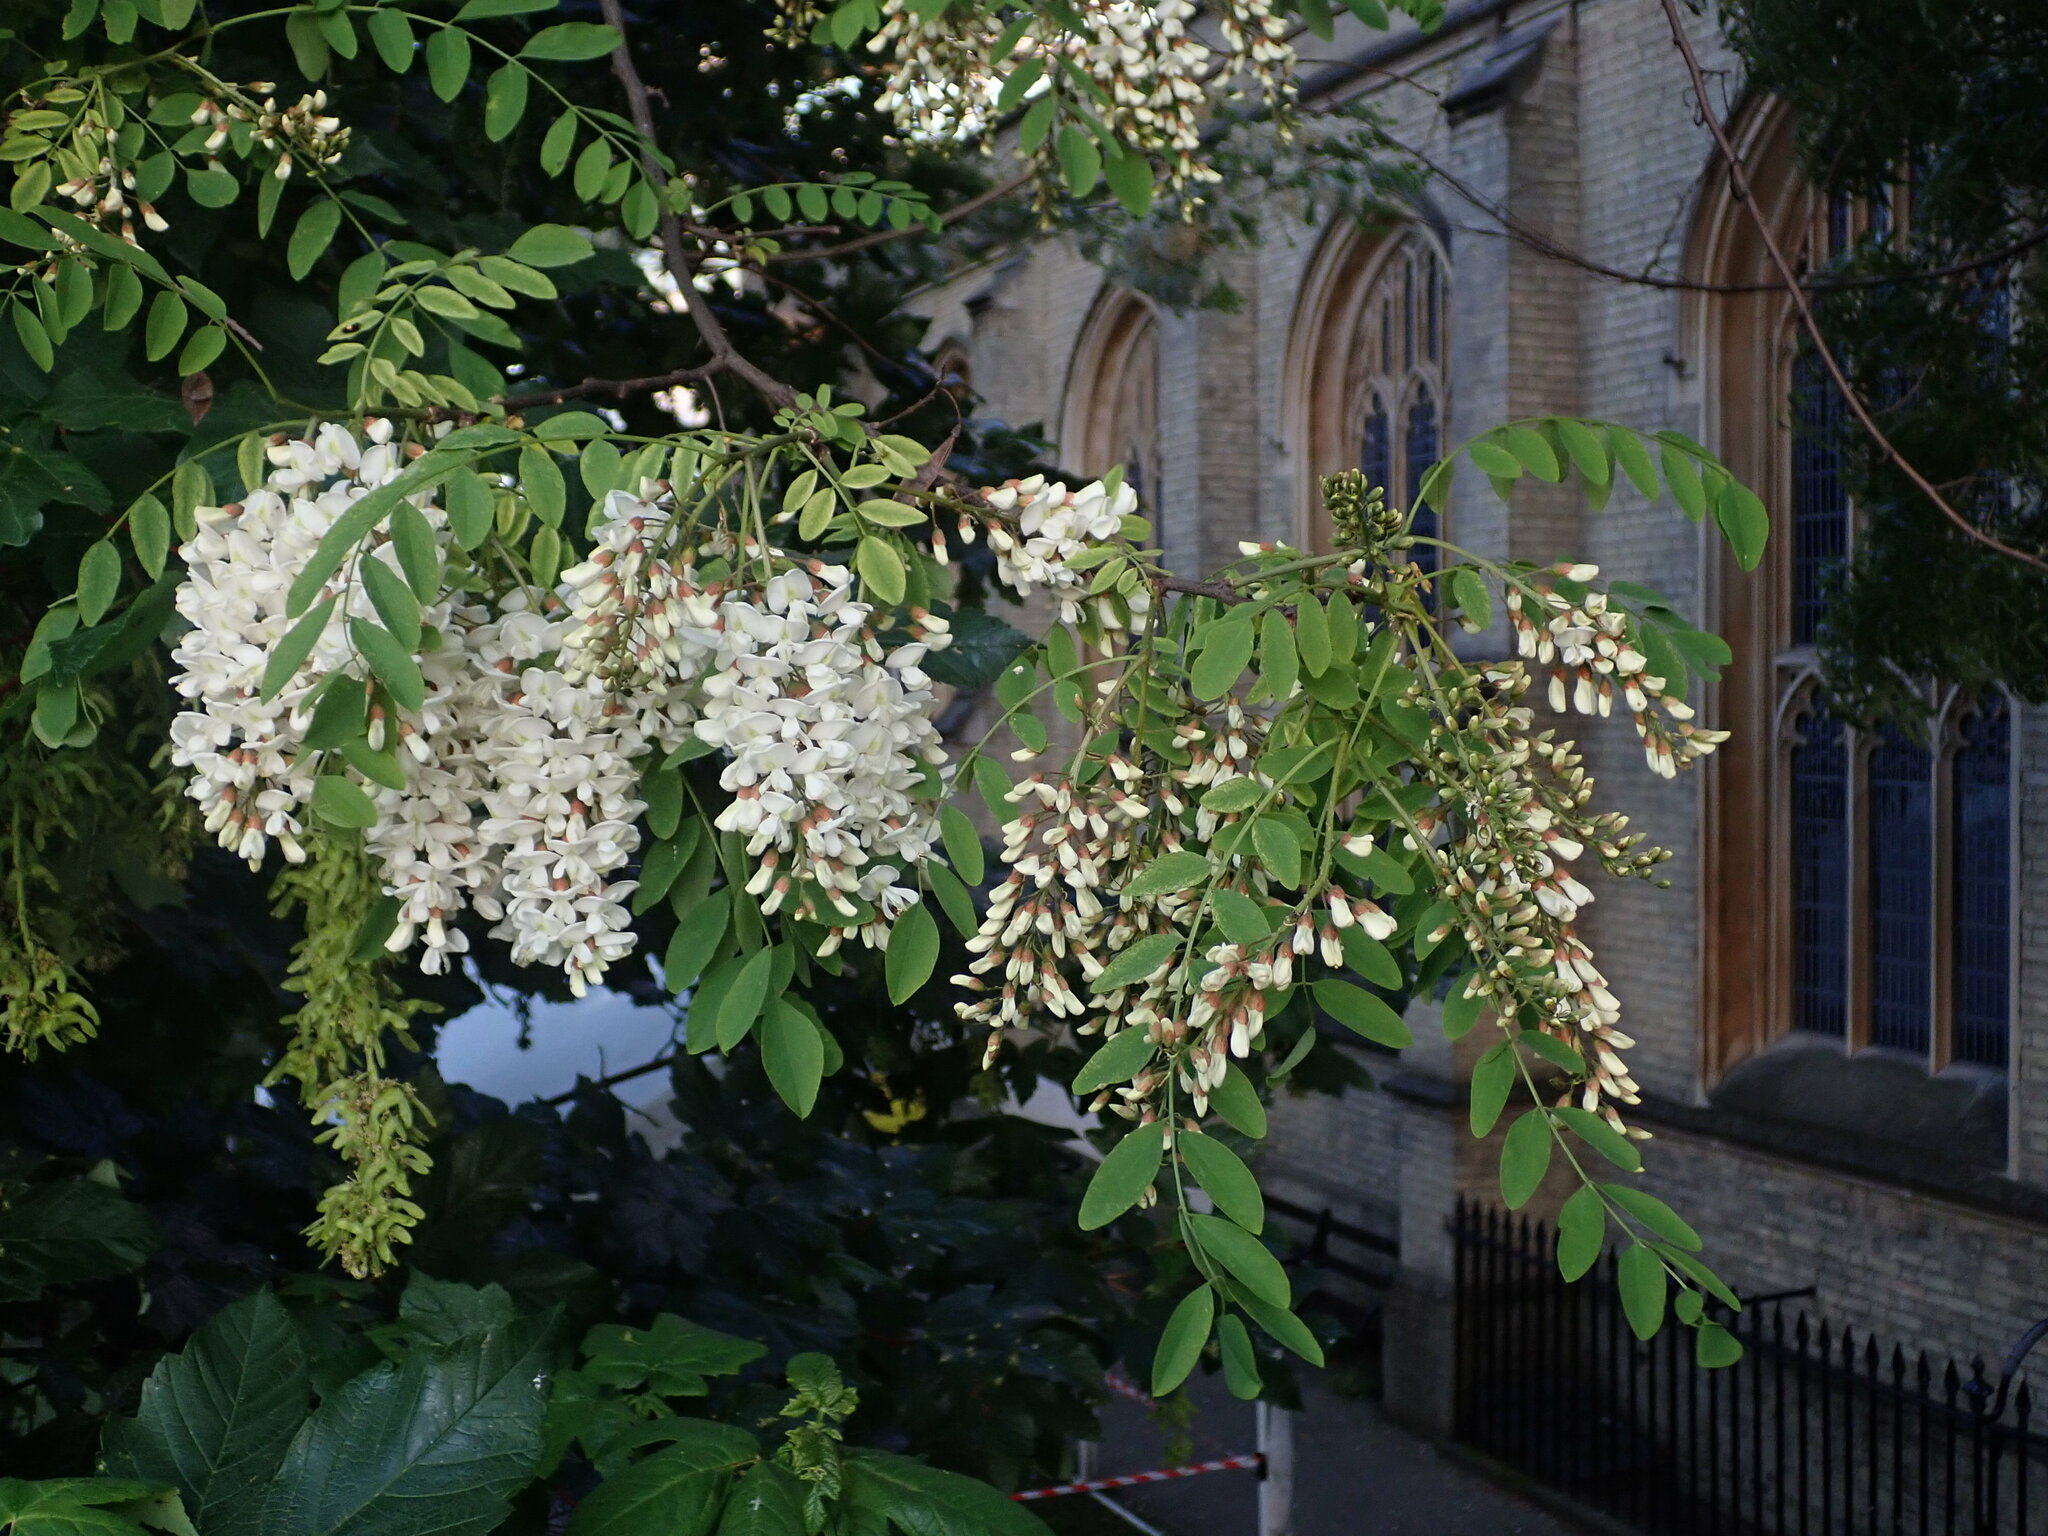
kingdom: Plantae
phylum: Tracheophyta
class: Magnoliopsida
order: Fabales
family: Fabaceae
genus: Robinia
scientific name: Robinia pseudoacacia
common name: Black locust
